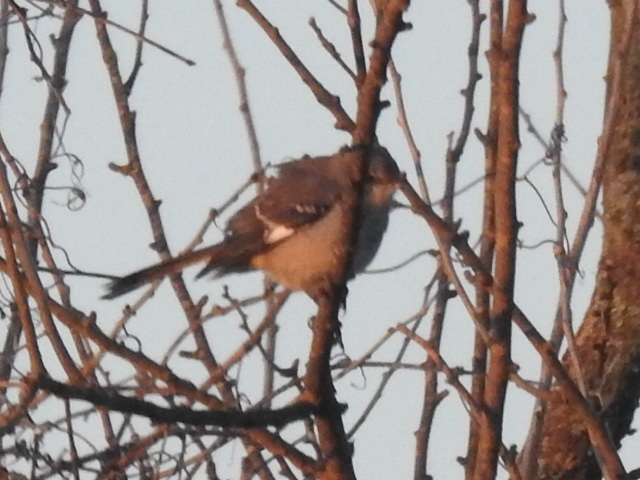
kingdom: Animalia
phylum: Chordata
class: Aves
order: Passeriformes
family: Mimidae
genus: Mimus
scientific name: Mimus polyglottos
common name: Northern mockingbird
